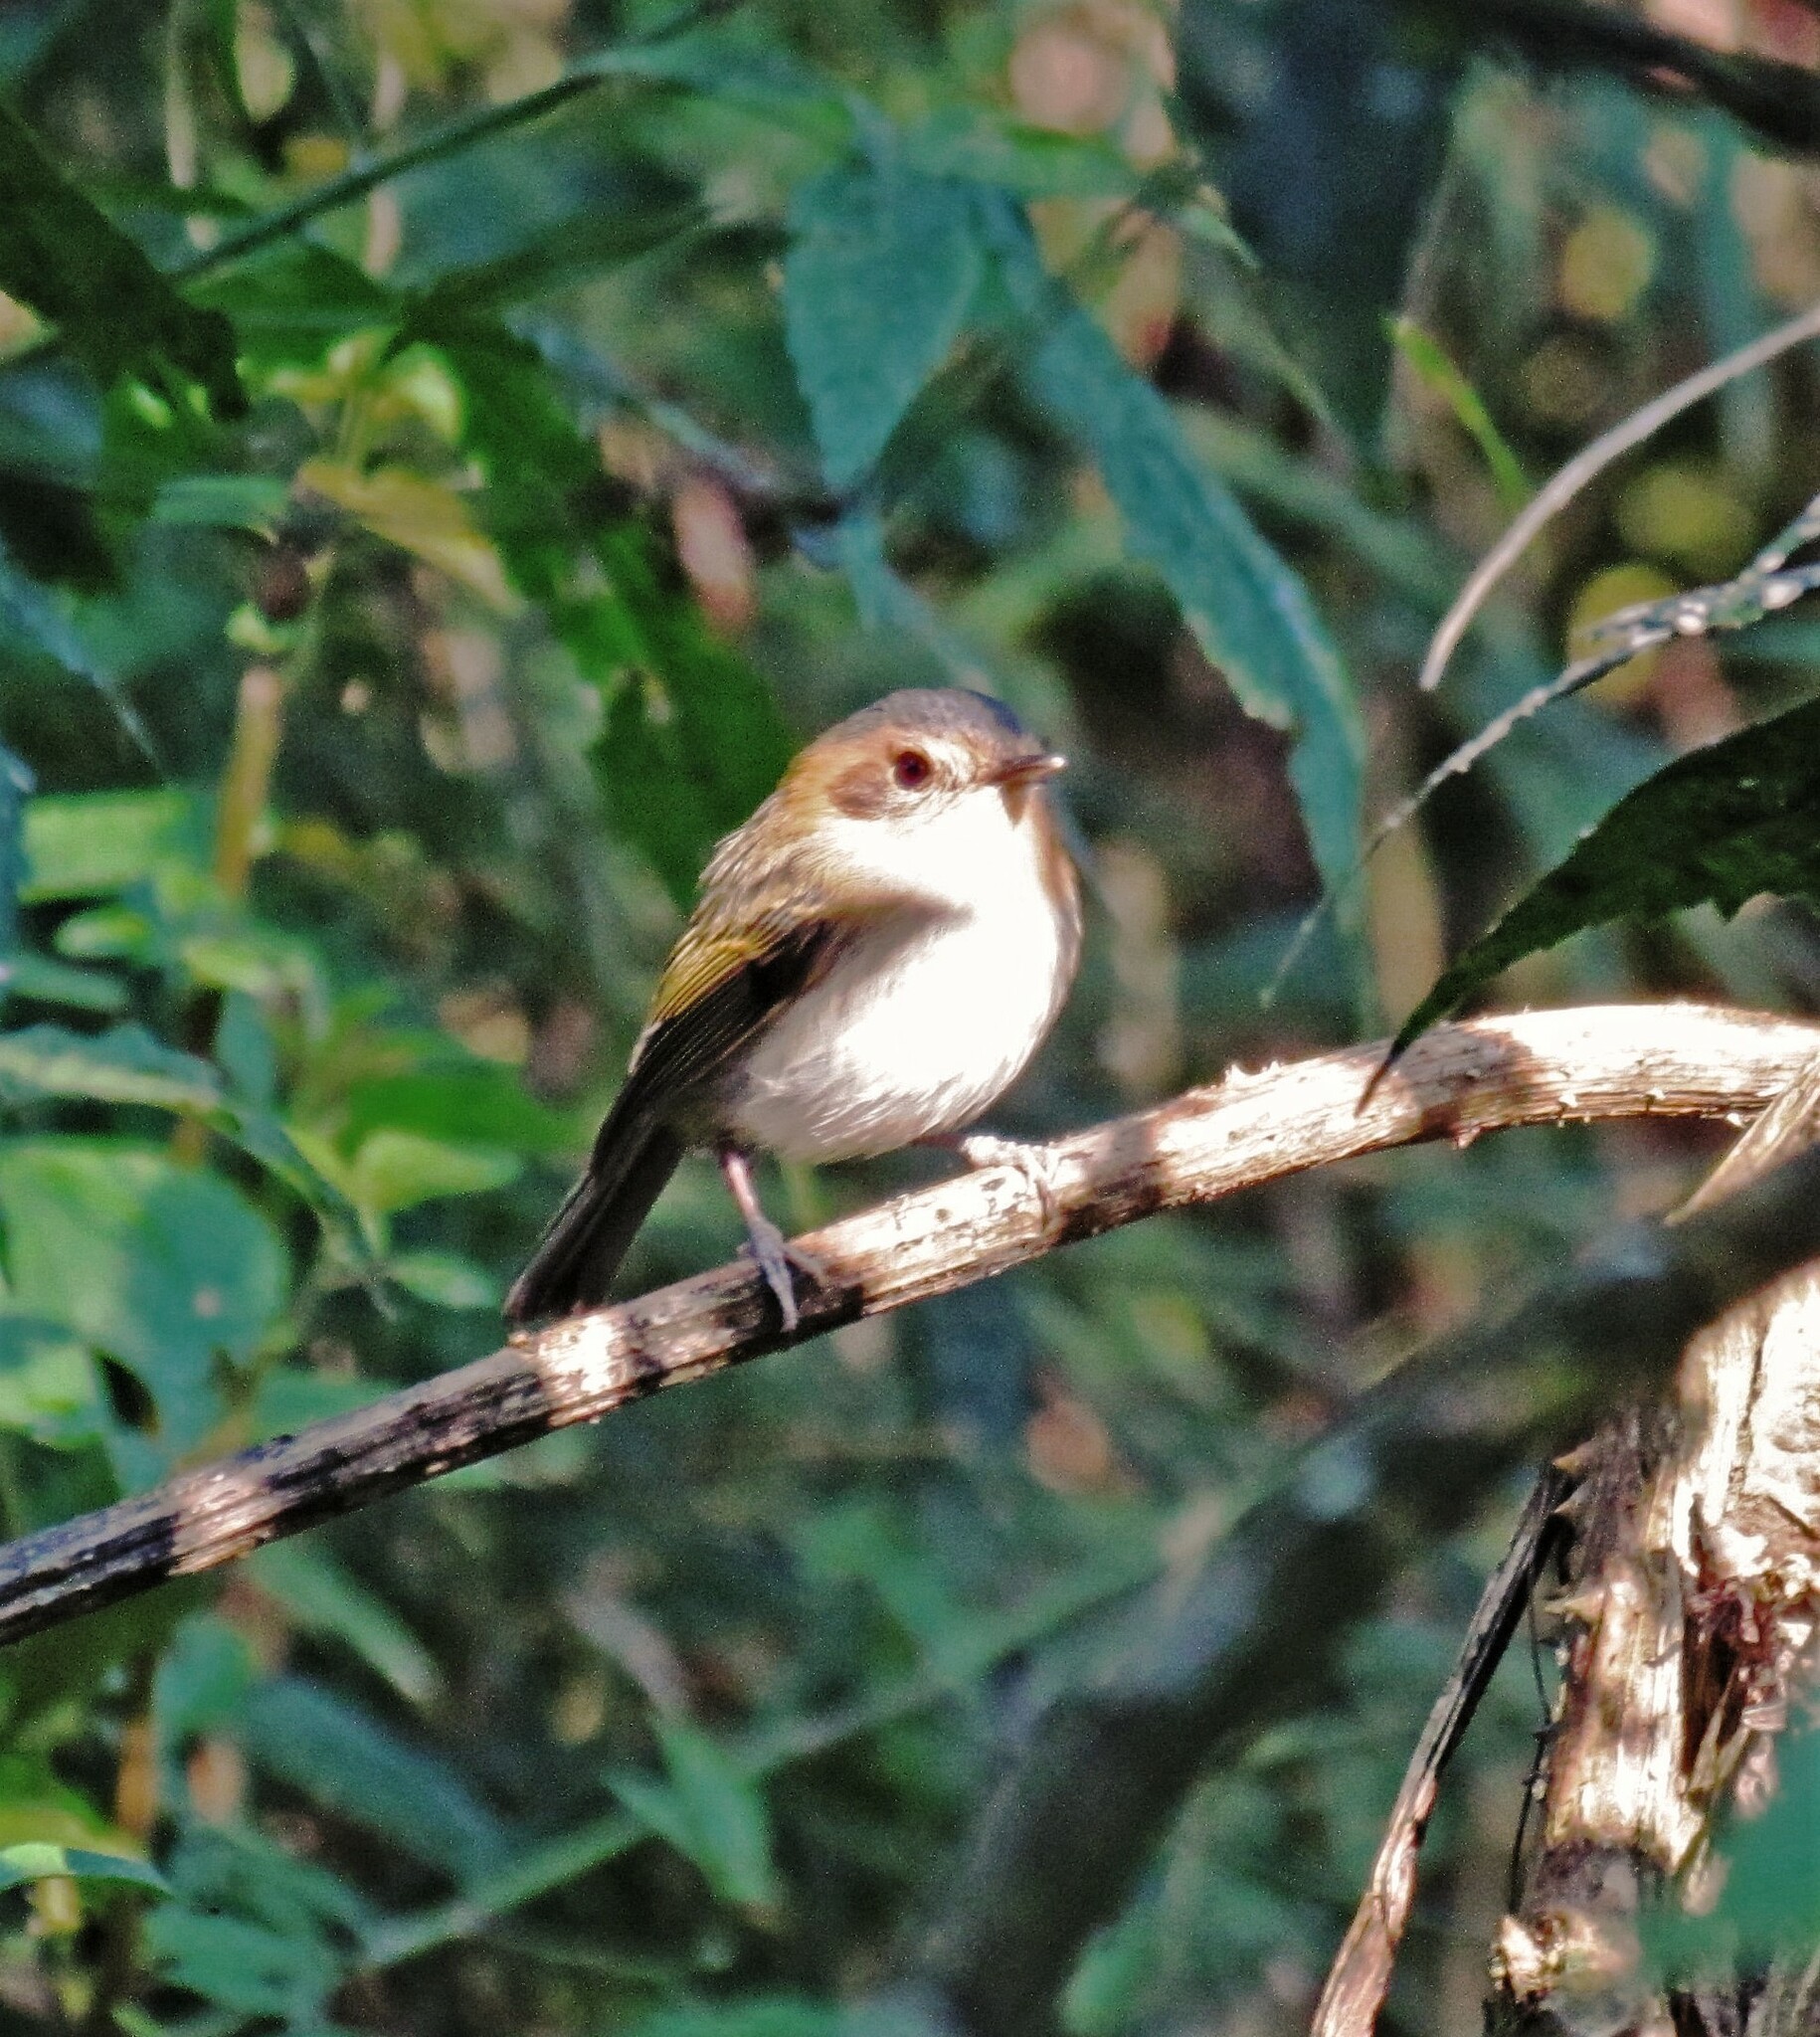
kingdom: Animalia
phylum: Chordata
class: Aves
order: Passeriformes
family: Tyrannidae
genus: Poecilotriccus
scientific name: Poecilotriccus plumbeiceps
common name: Ochre-faced tody-flycatcher
